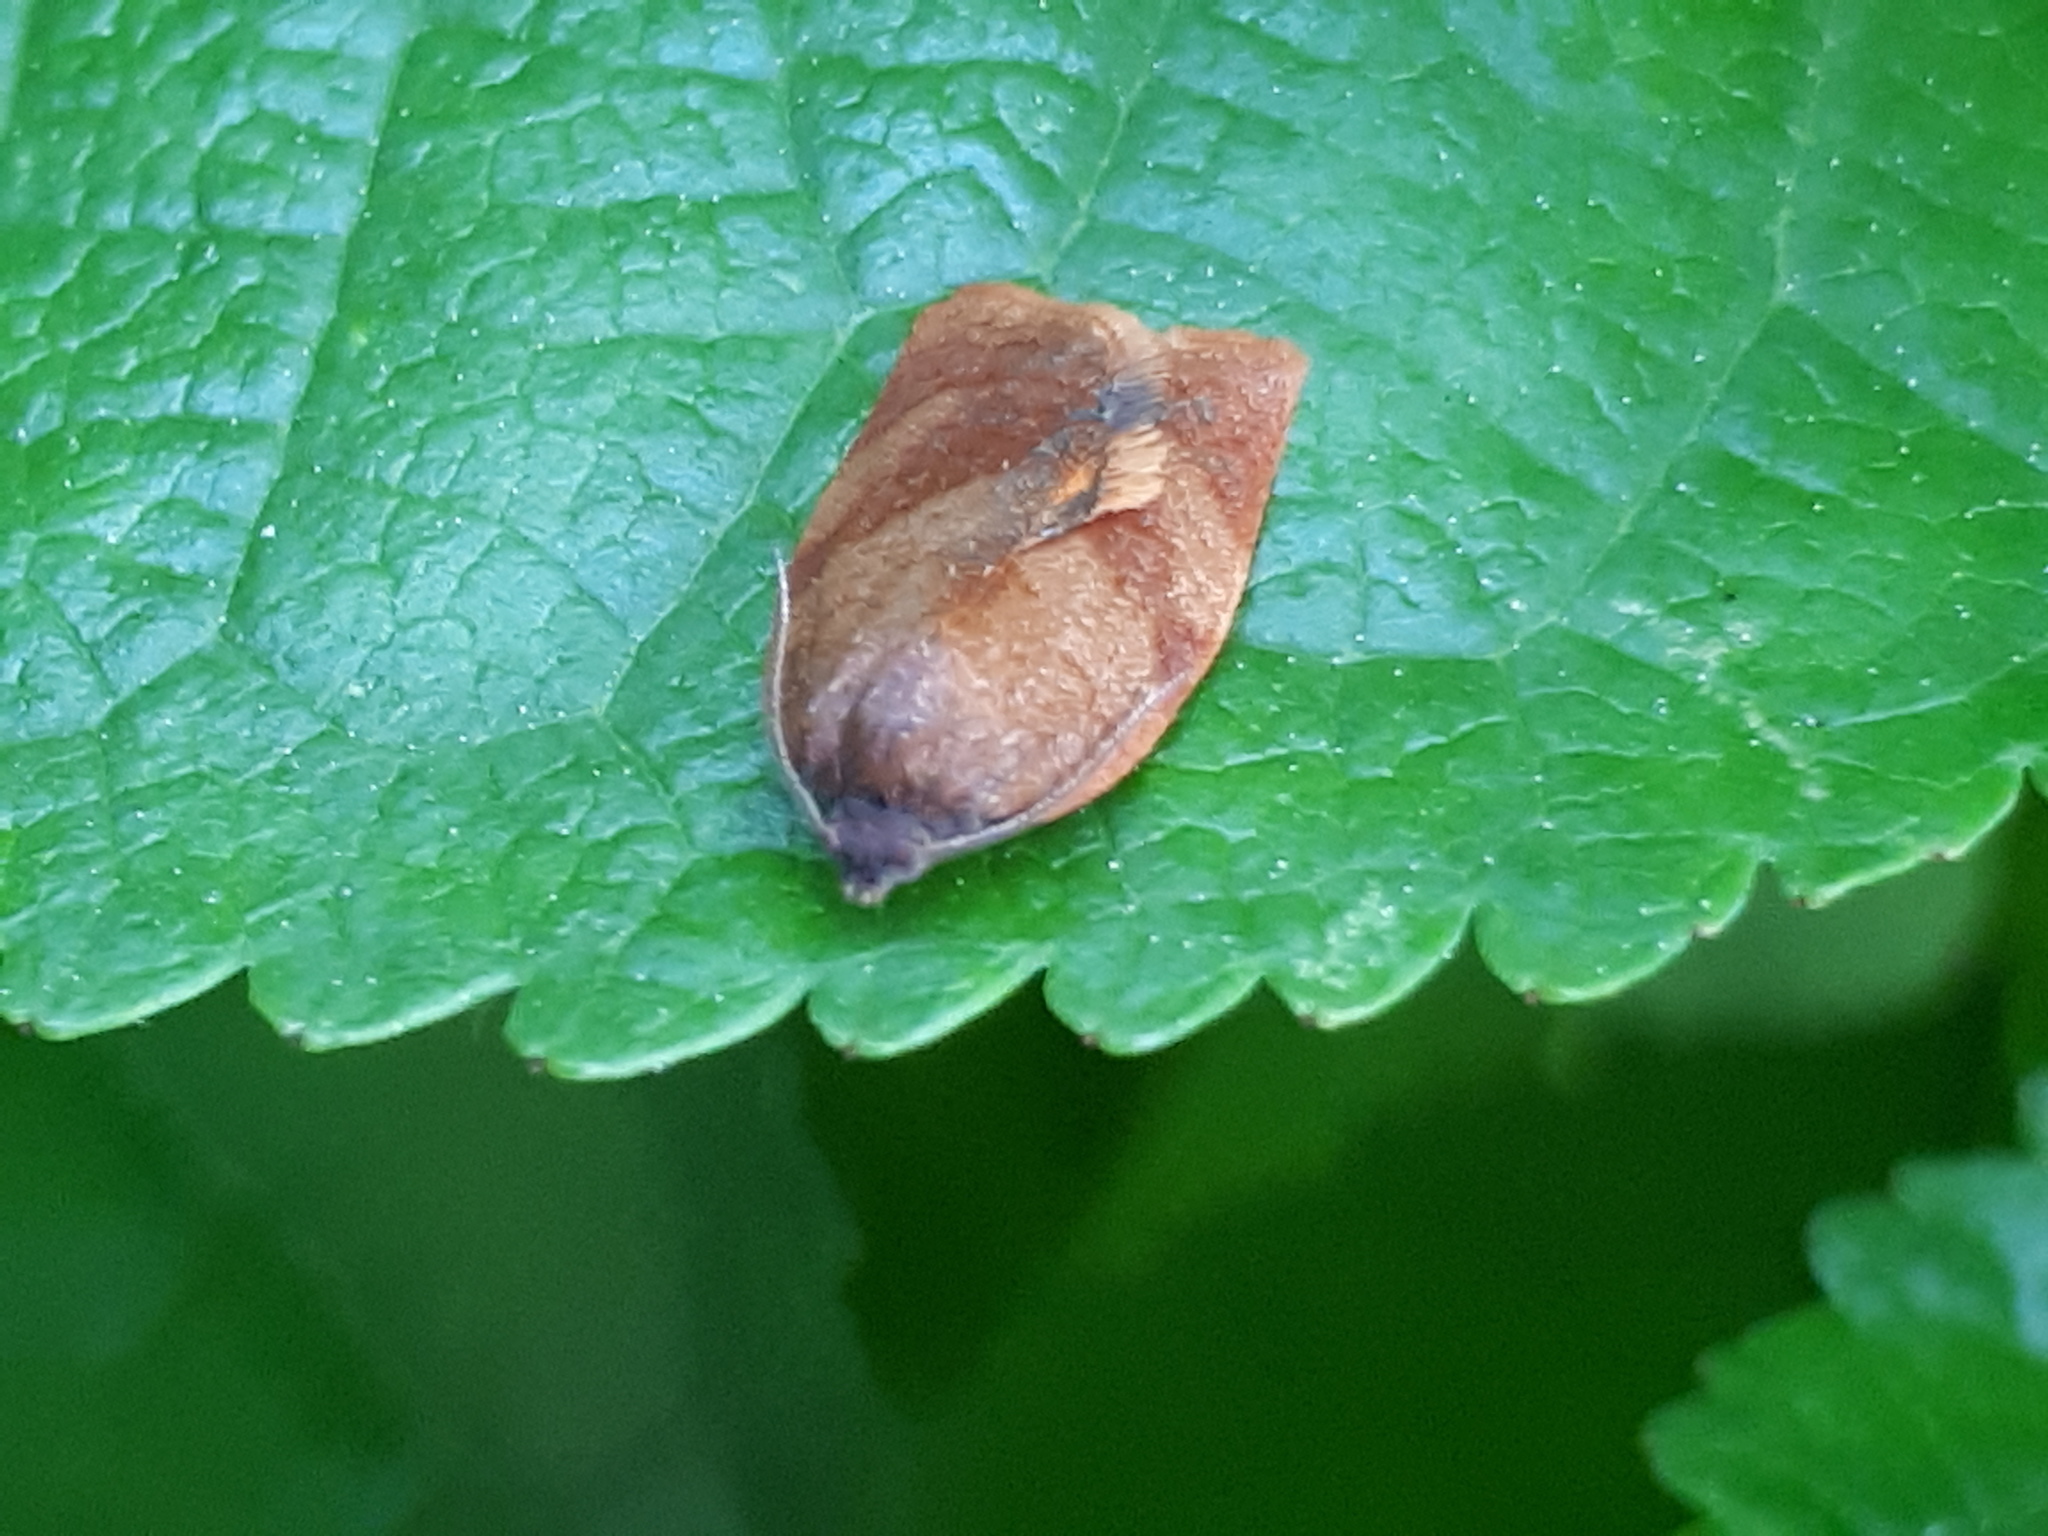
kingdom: Animalia
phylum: Arthropoda
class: Insecta
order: Lepidoptera
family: Tortricidae
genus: Cacoecimorpha
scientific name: Cacoecimorpha pronubana
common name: Carnation tortrix
